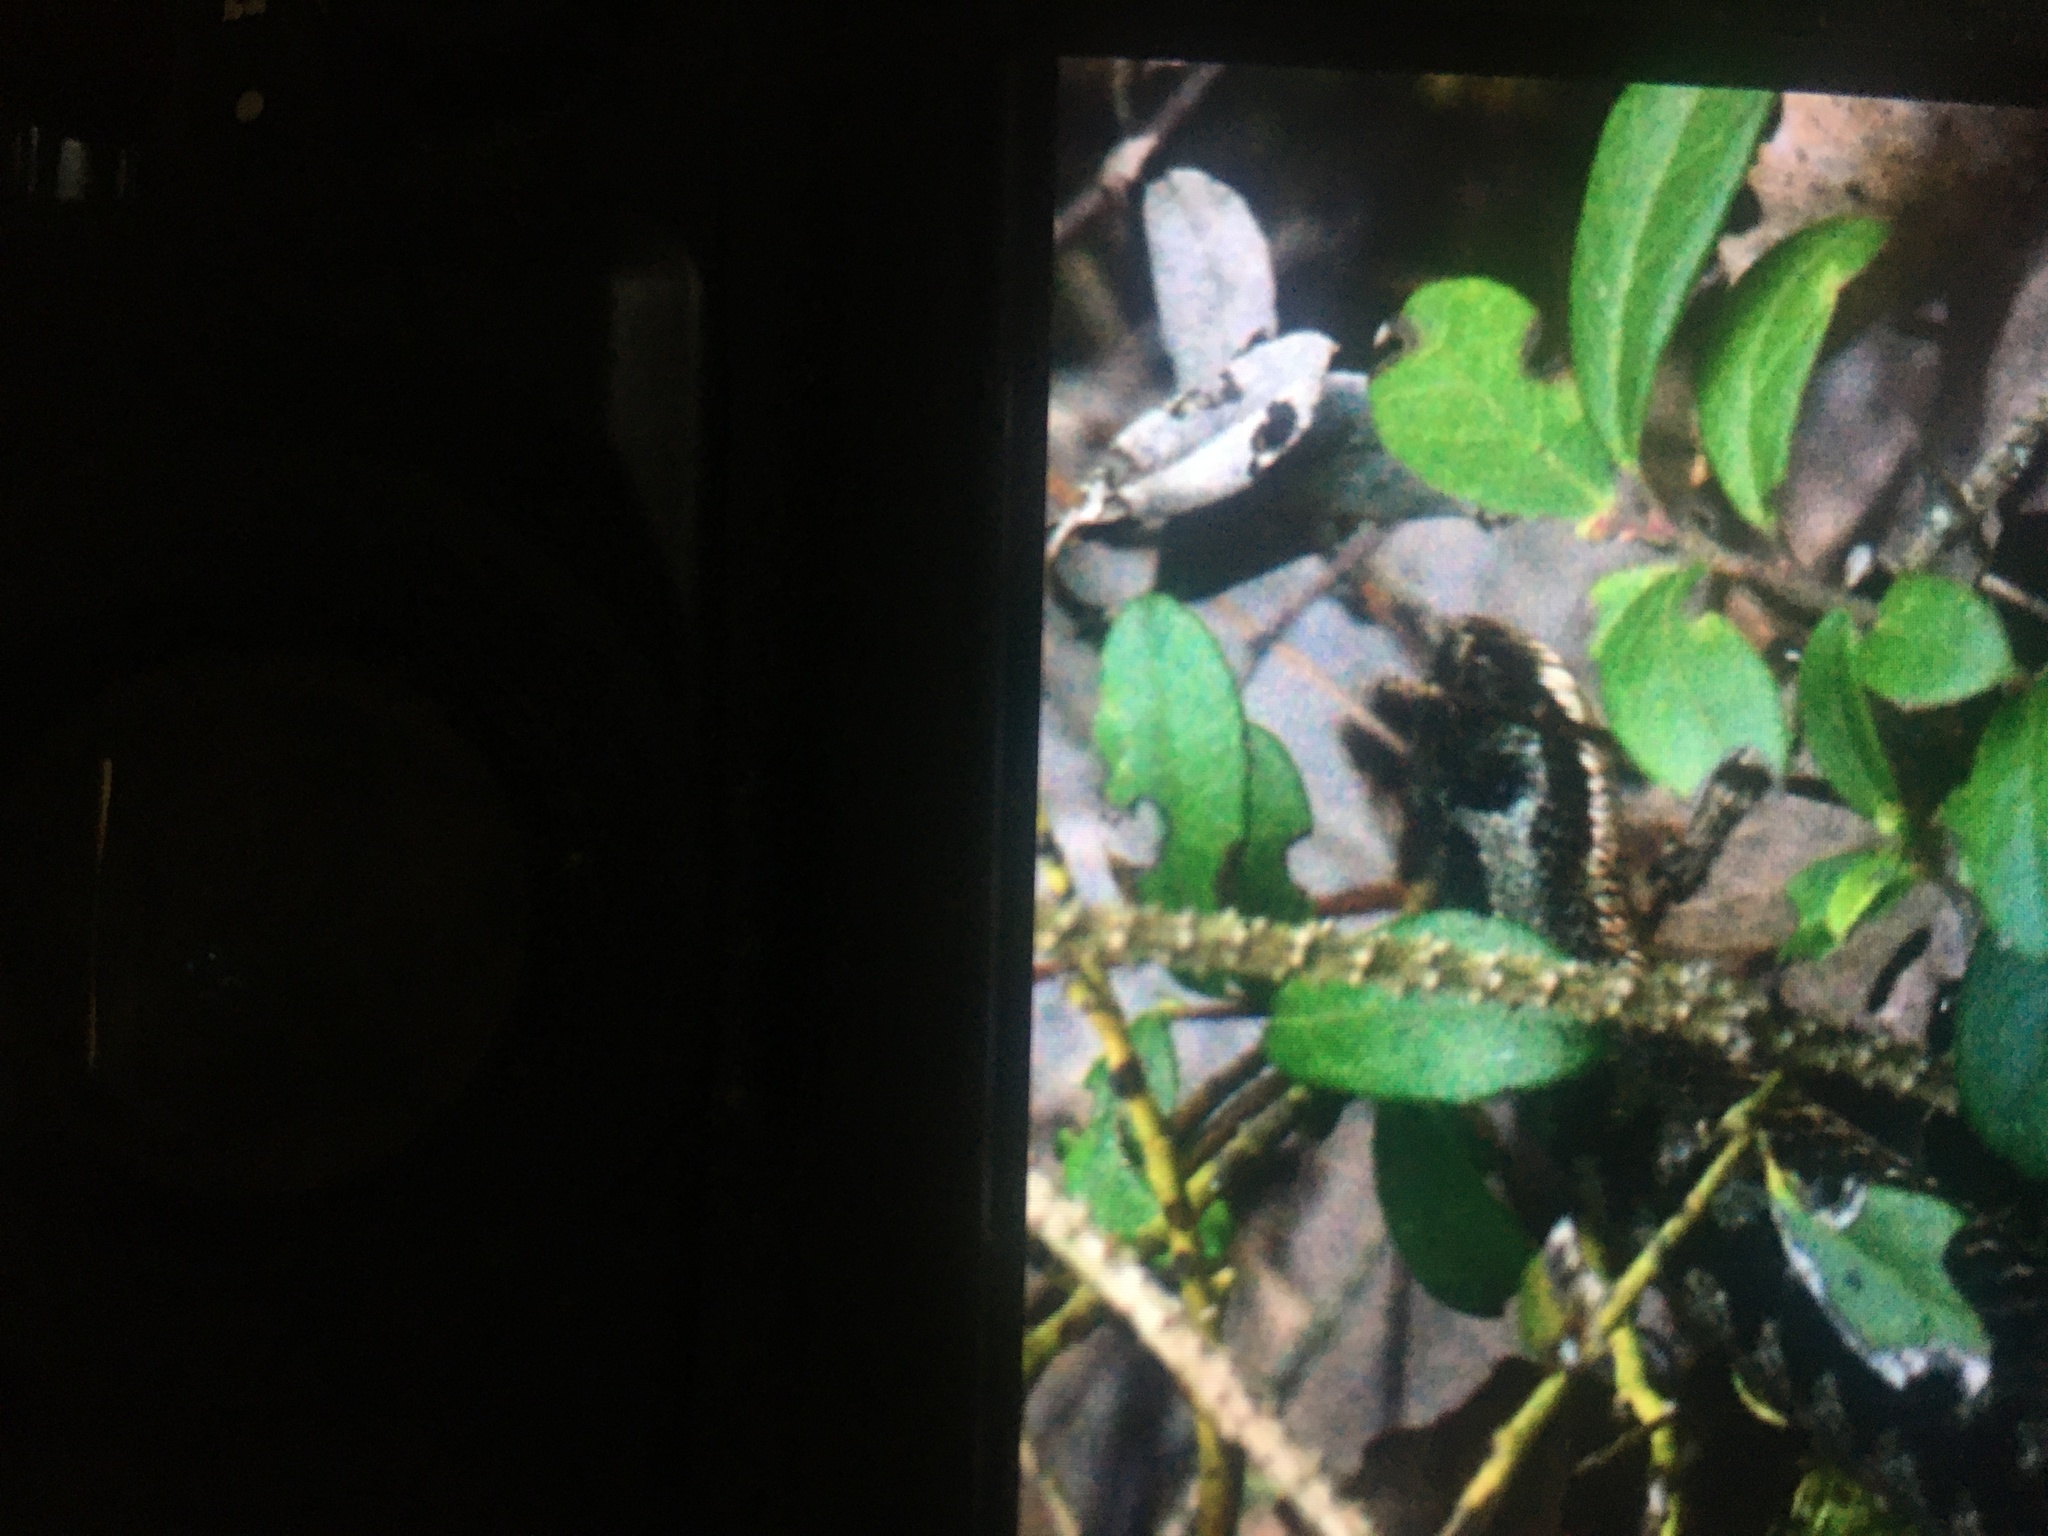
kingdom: Animalia
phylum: Chordata
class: Squamata
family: Viperidae
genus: Vipera
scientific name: Vipera berus
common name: Adder
